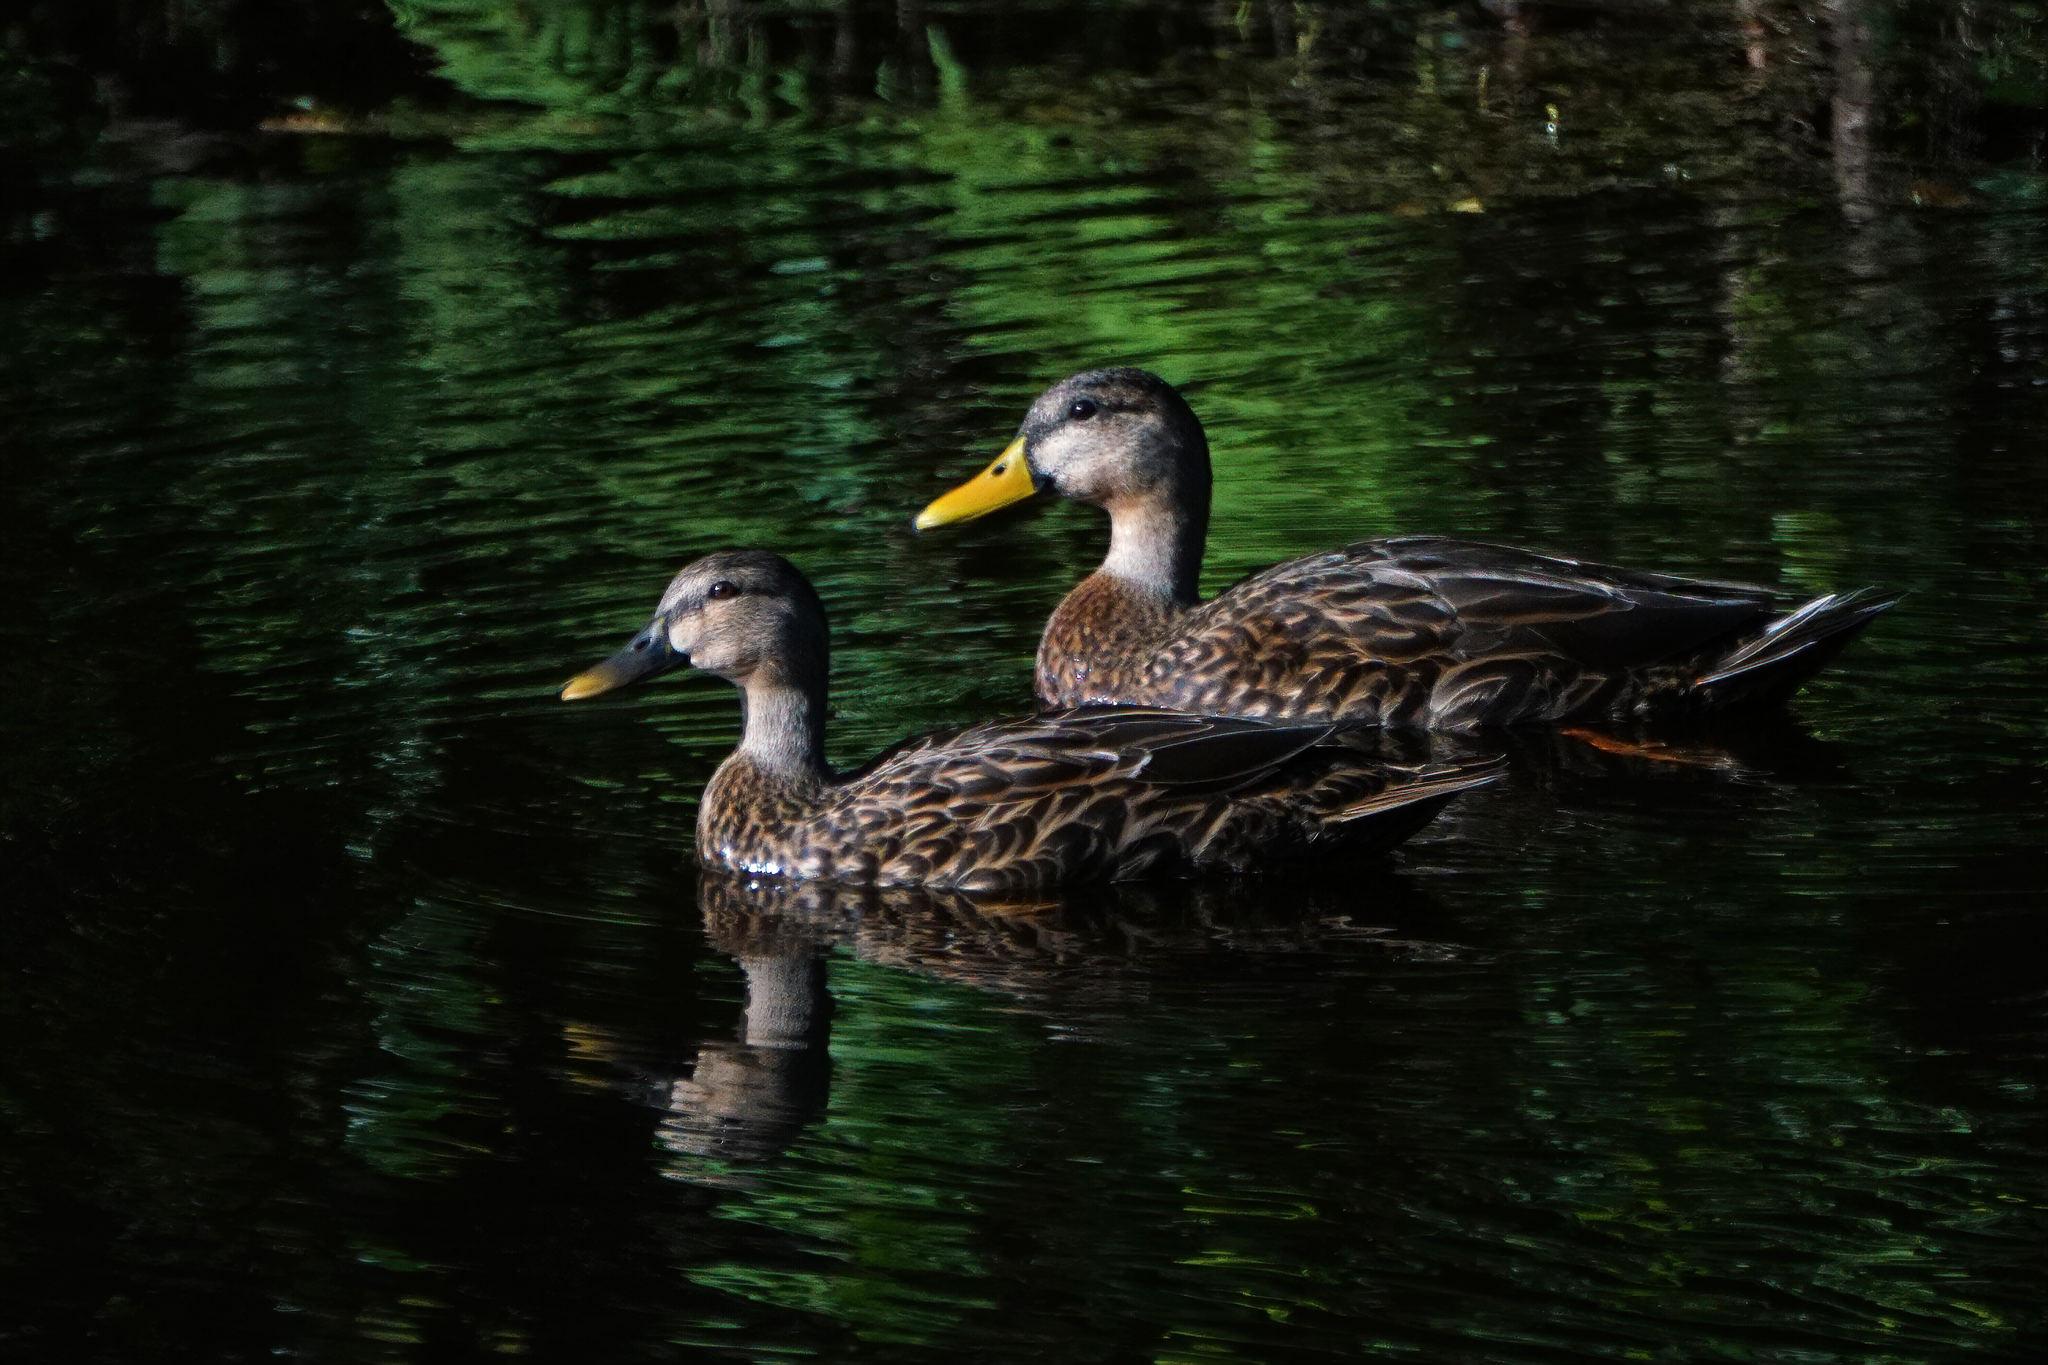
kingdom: Animalia
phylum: Chordata
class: Aves
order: Anseriformes
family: Anatidae
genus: Anas
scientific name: Anas
